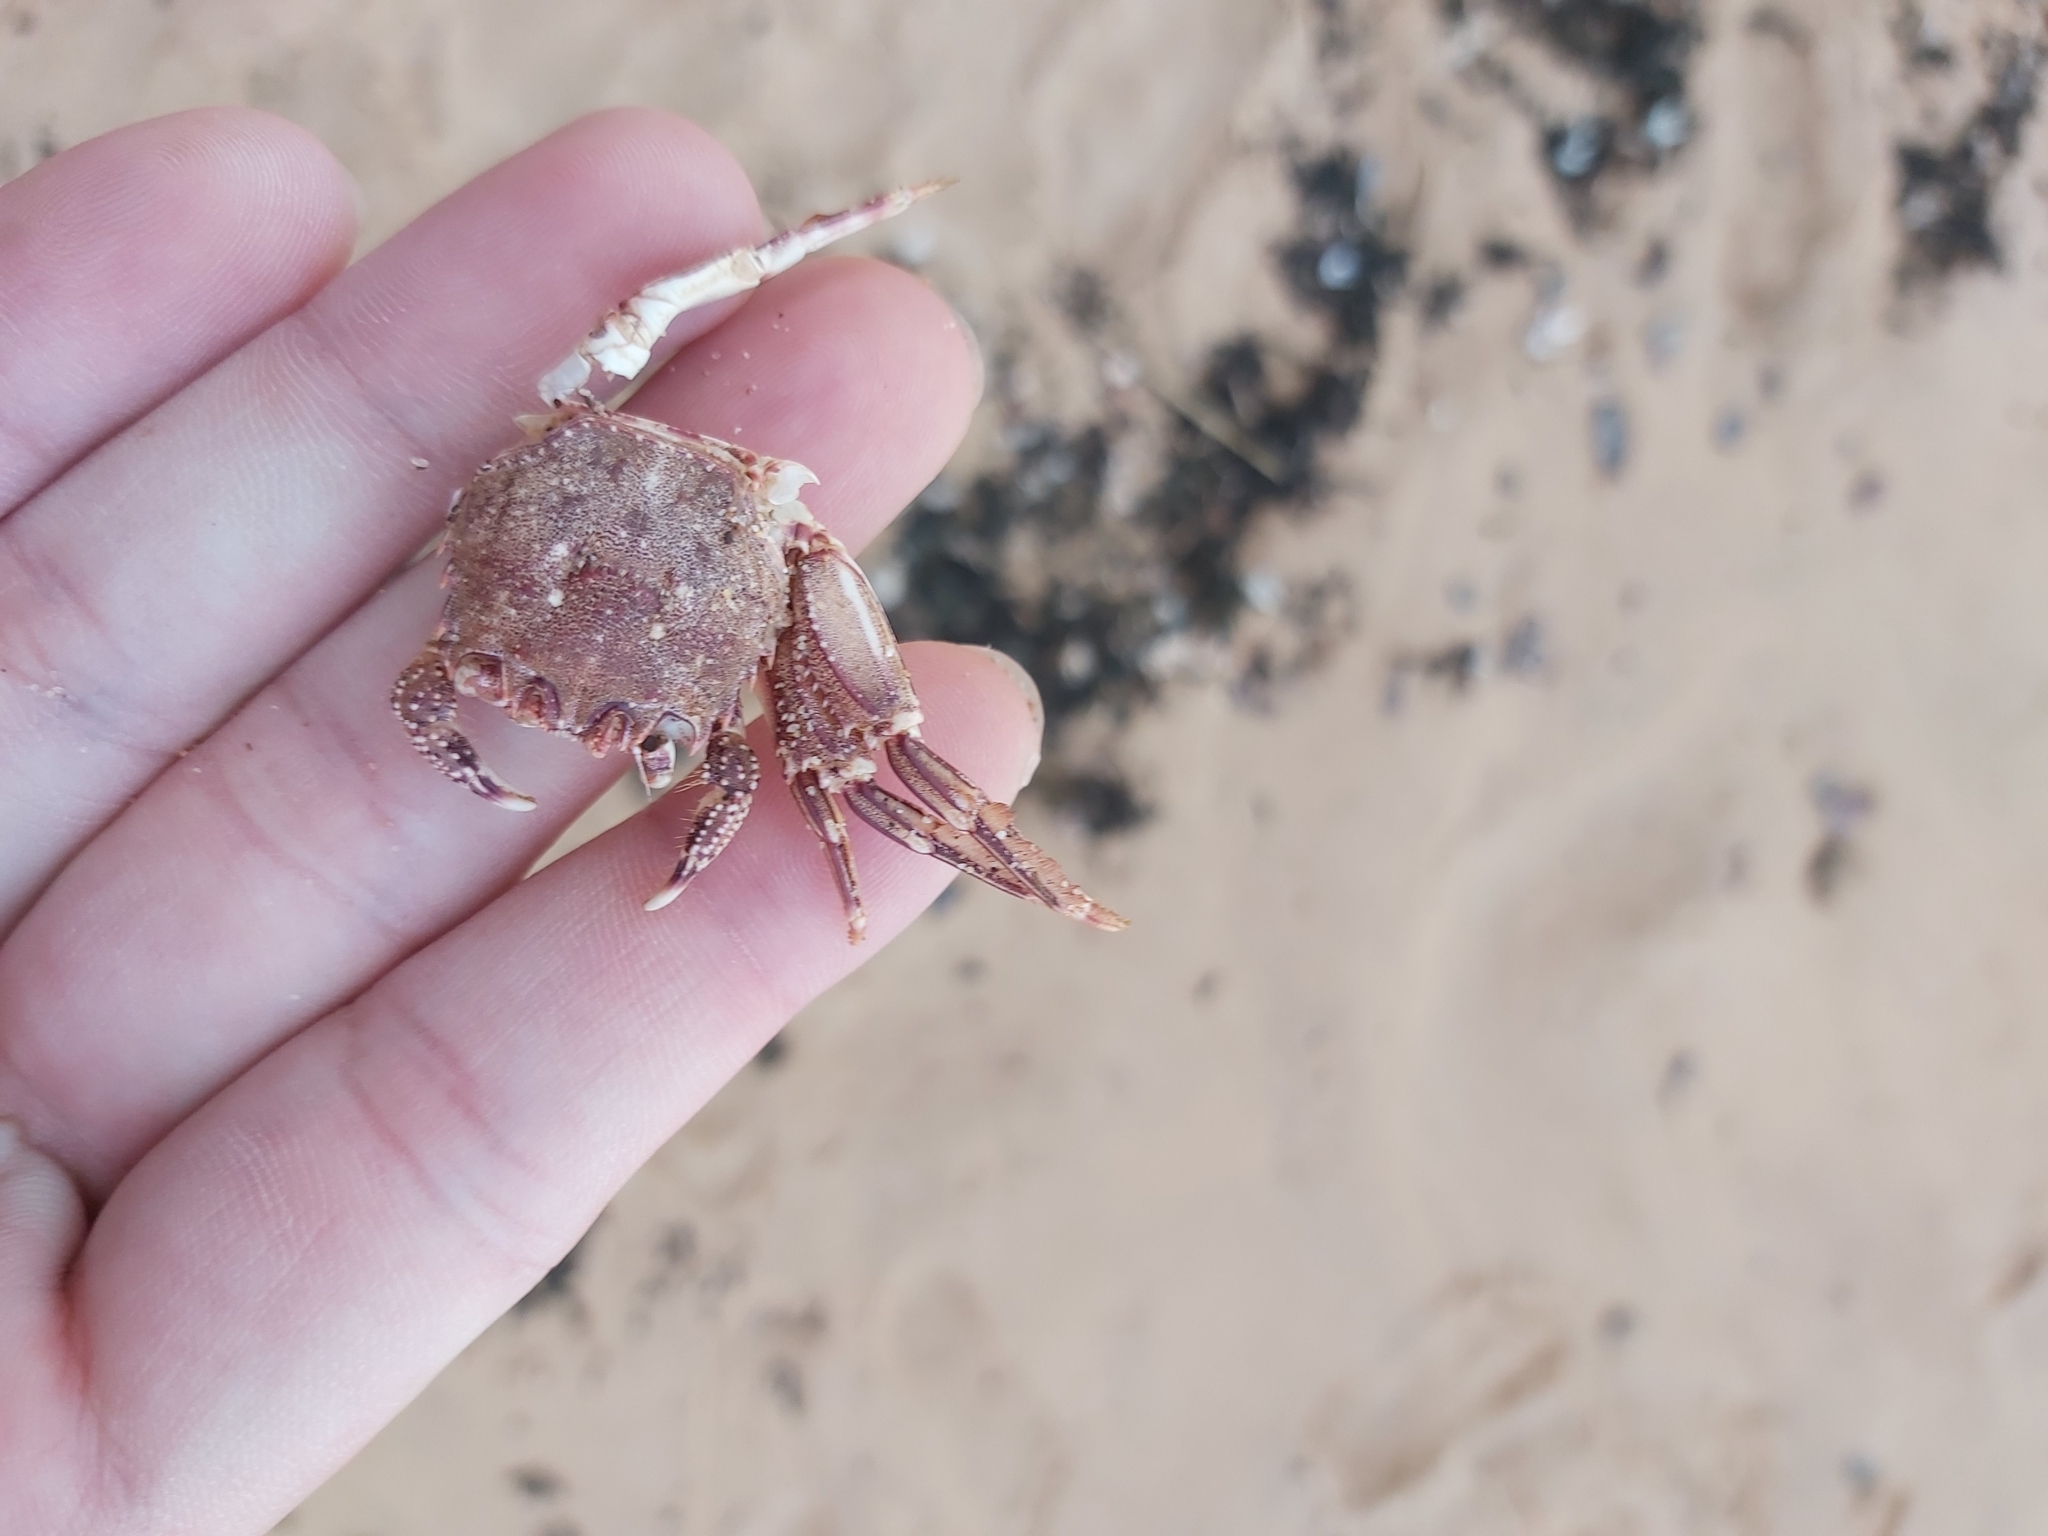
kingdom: Animalia
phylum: Arthropoda
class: Malacostraca
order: Decapoda
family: Plagusiidae
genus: Guinusia
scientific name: Guinusia chabrus
